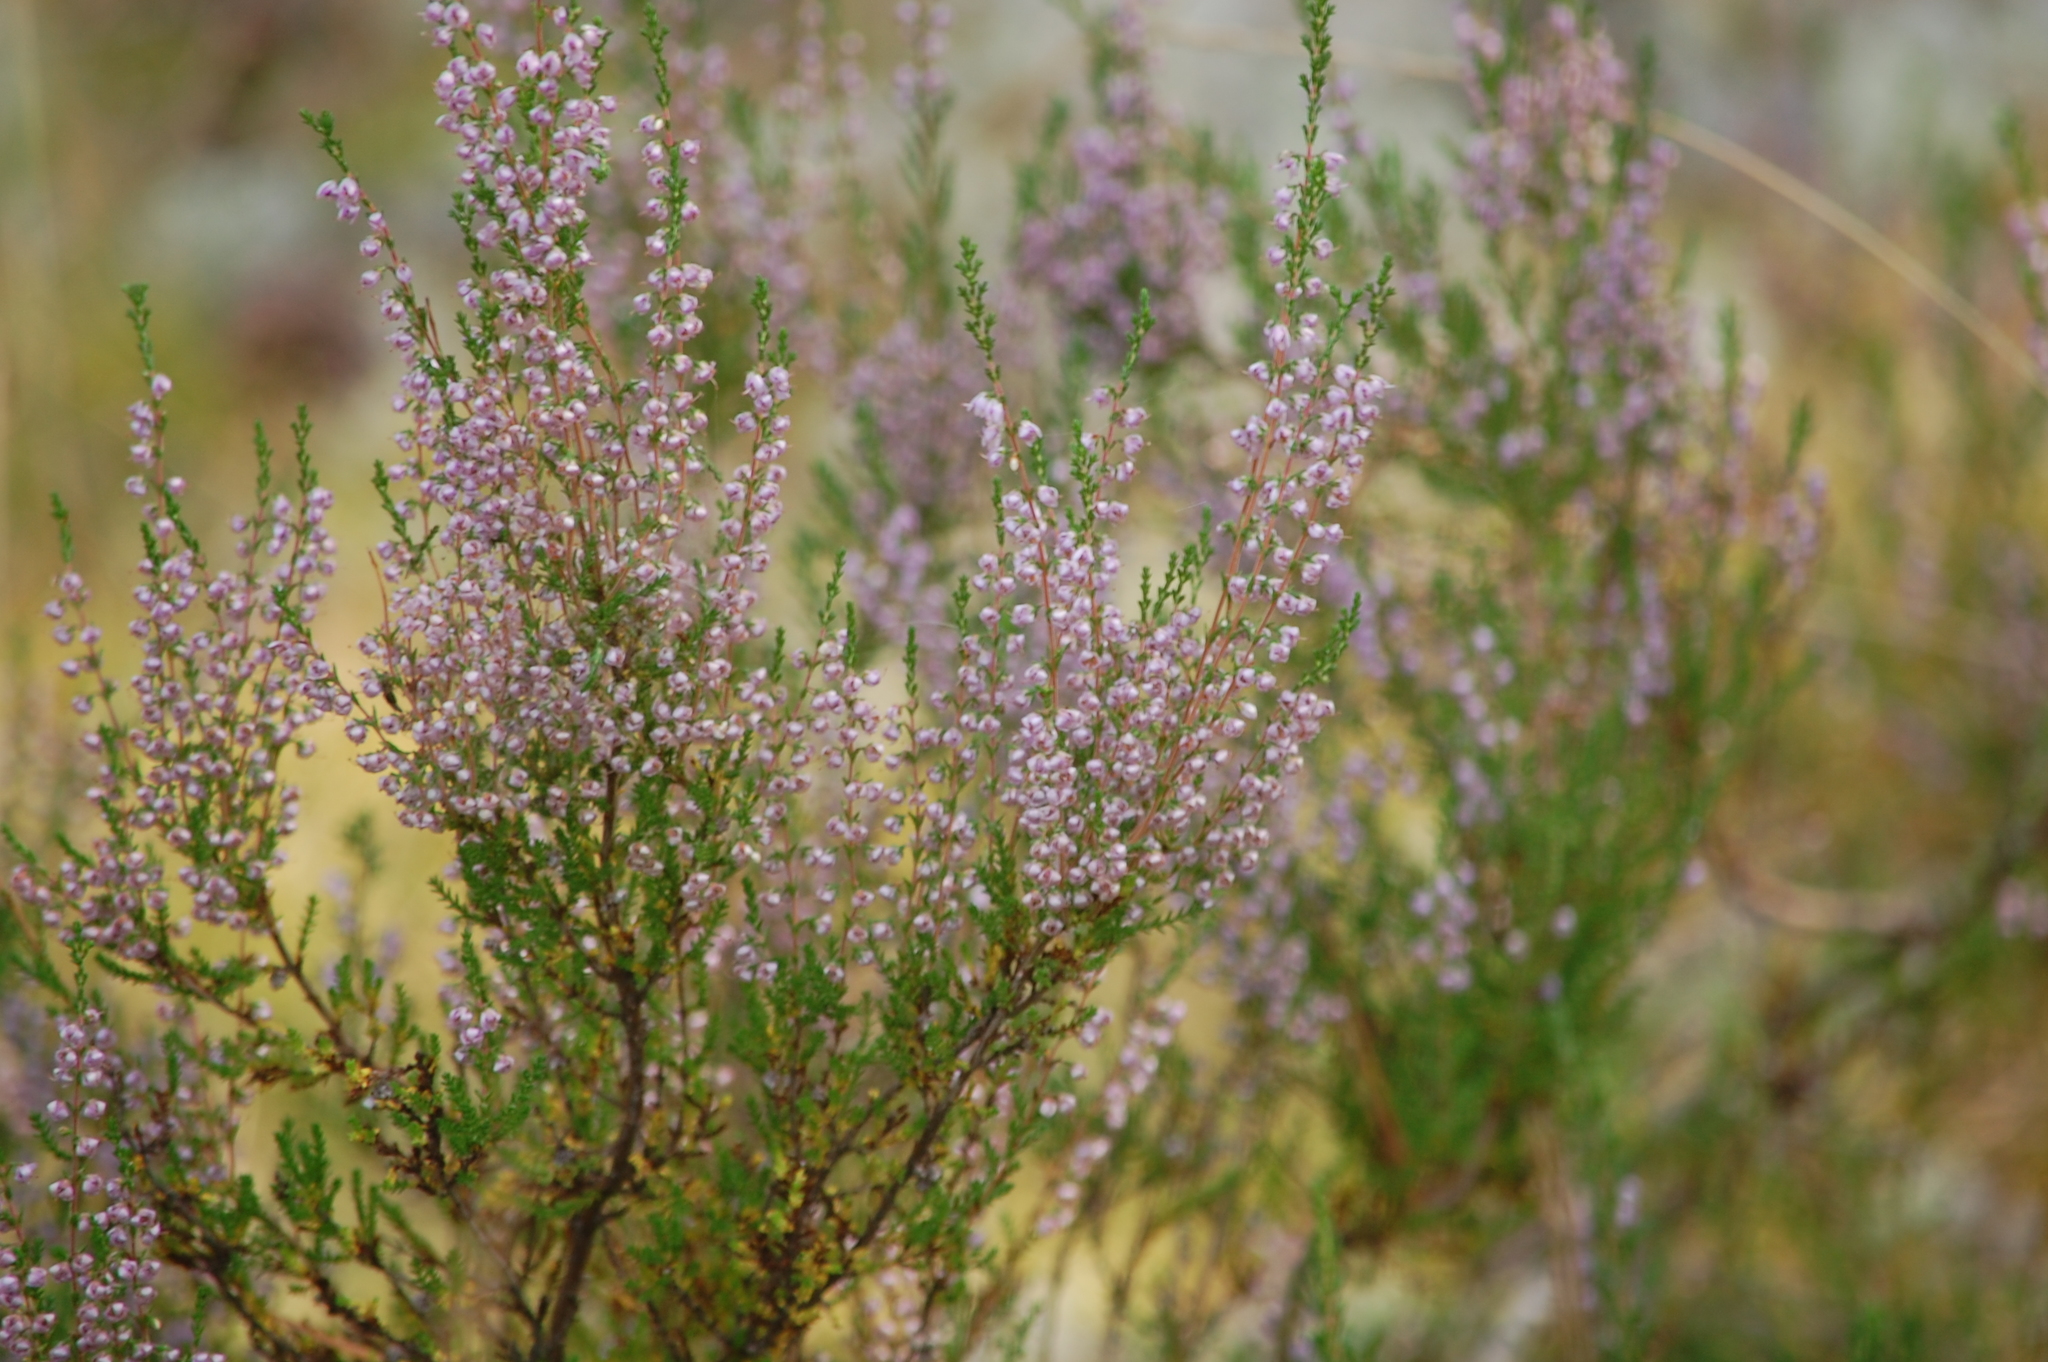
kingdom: Plantae
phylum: Tracheophyta
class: Magnoliopsida
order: Ericales
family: Ericaceae
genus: Calluna
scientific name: Calluna vulgaris
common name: Heather
